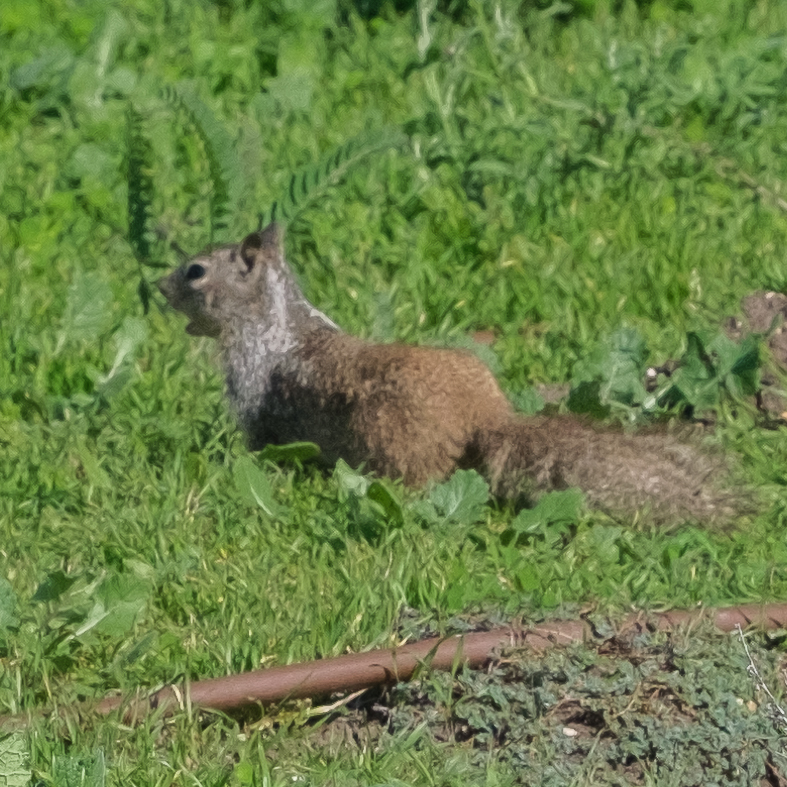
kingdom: Animalia
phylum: Chordata
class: Mammalia
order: Rodentia
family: Sciuridae
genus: Otospermophilus
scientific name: Otospermophilus beecheyi
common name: California ground squirrel
